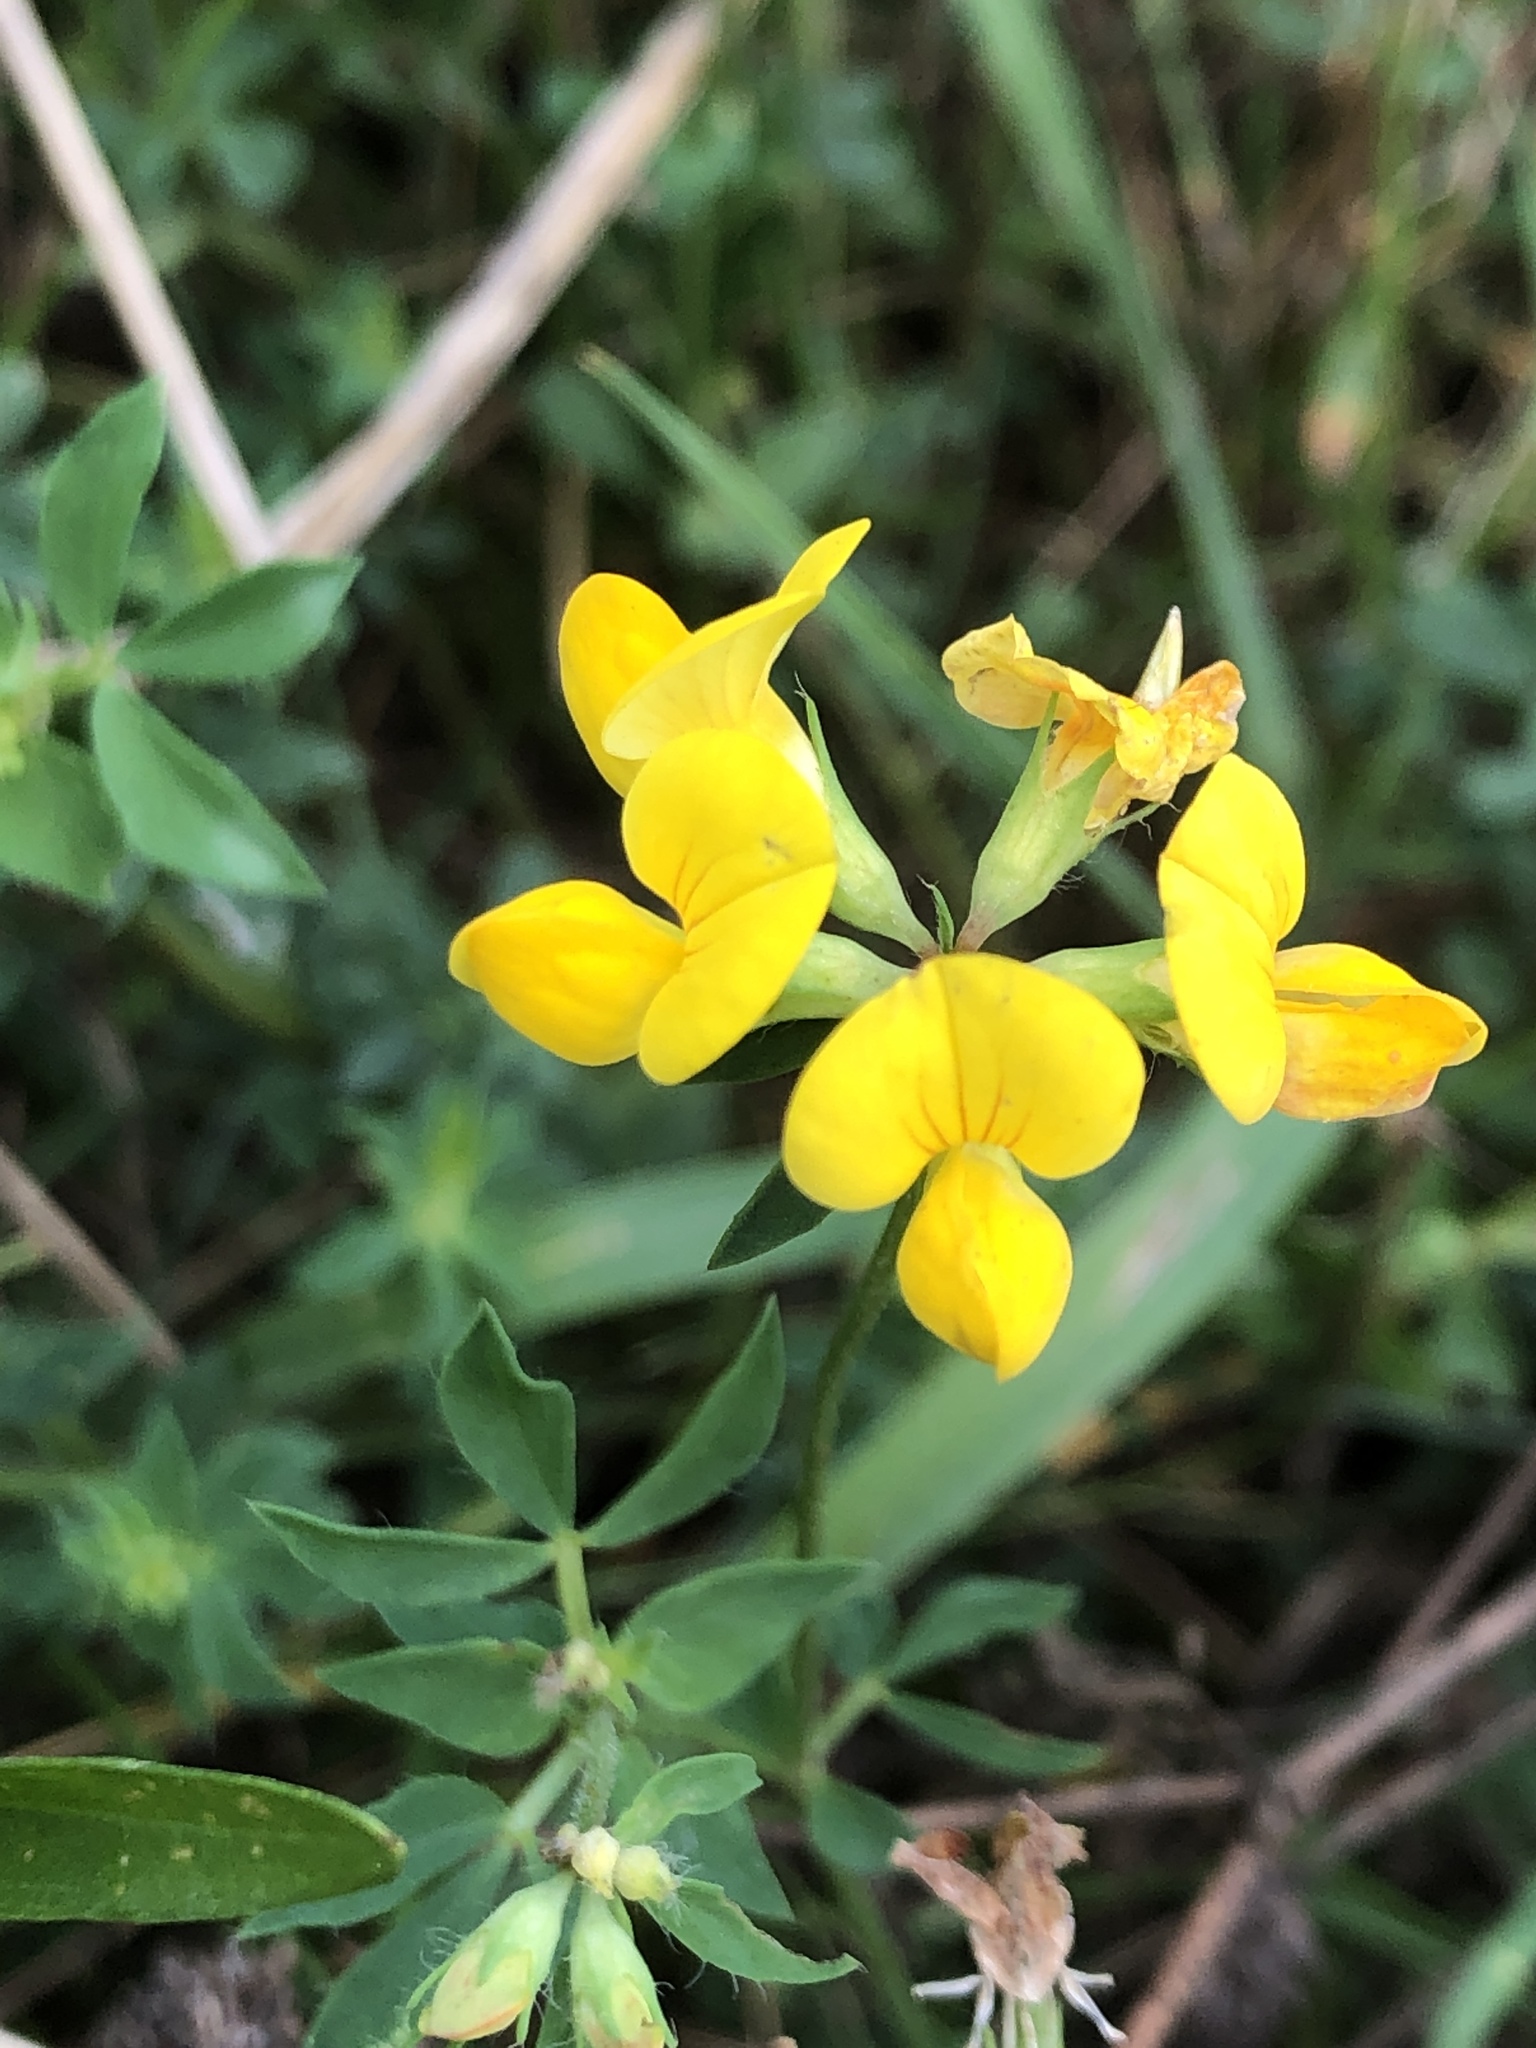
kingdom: Plantae
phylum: Tracheophyta
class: Magnoliopsida
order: Fabales
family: Fabaceae
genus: Lotus
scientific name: Lotus corniculatus
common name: Common bird's-foot-trefoil
